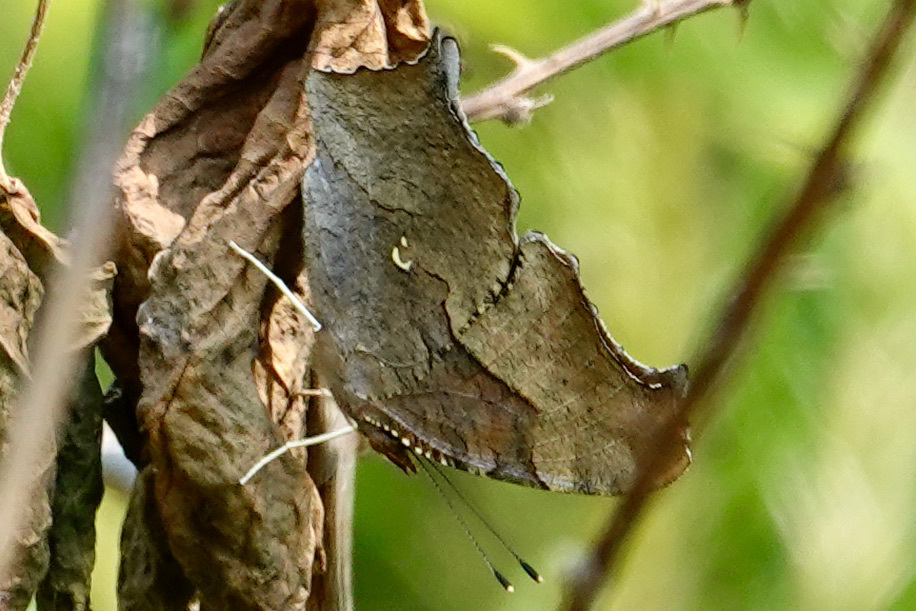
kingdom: Animalia
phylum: Arthropoda
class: Insecta
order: Lepidoptera
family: Nymphalidae
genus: Polygonia
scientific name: Polygonia interrogationis
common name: Question mark
